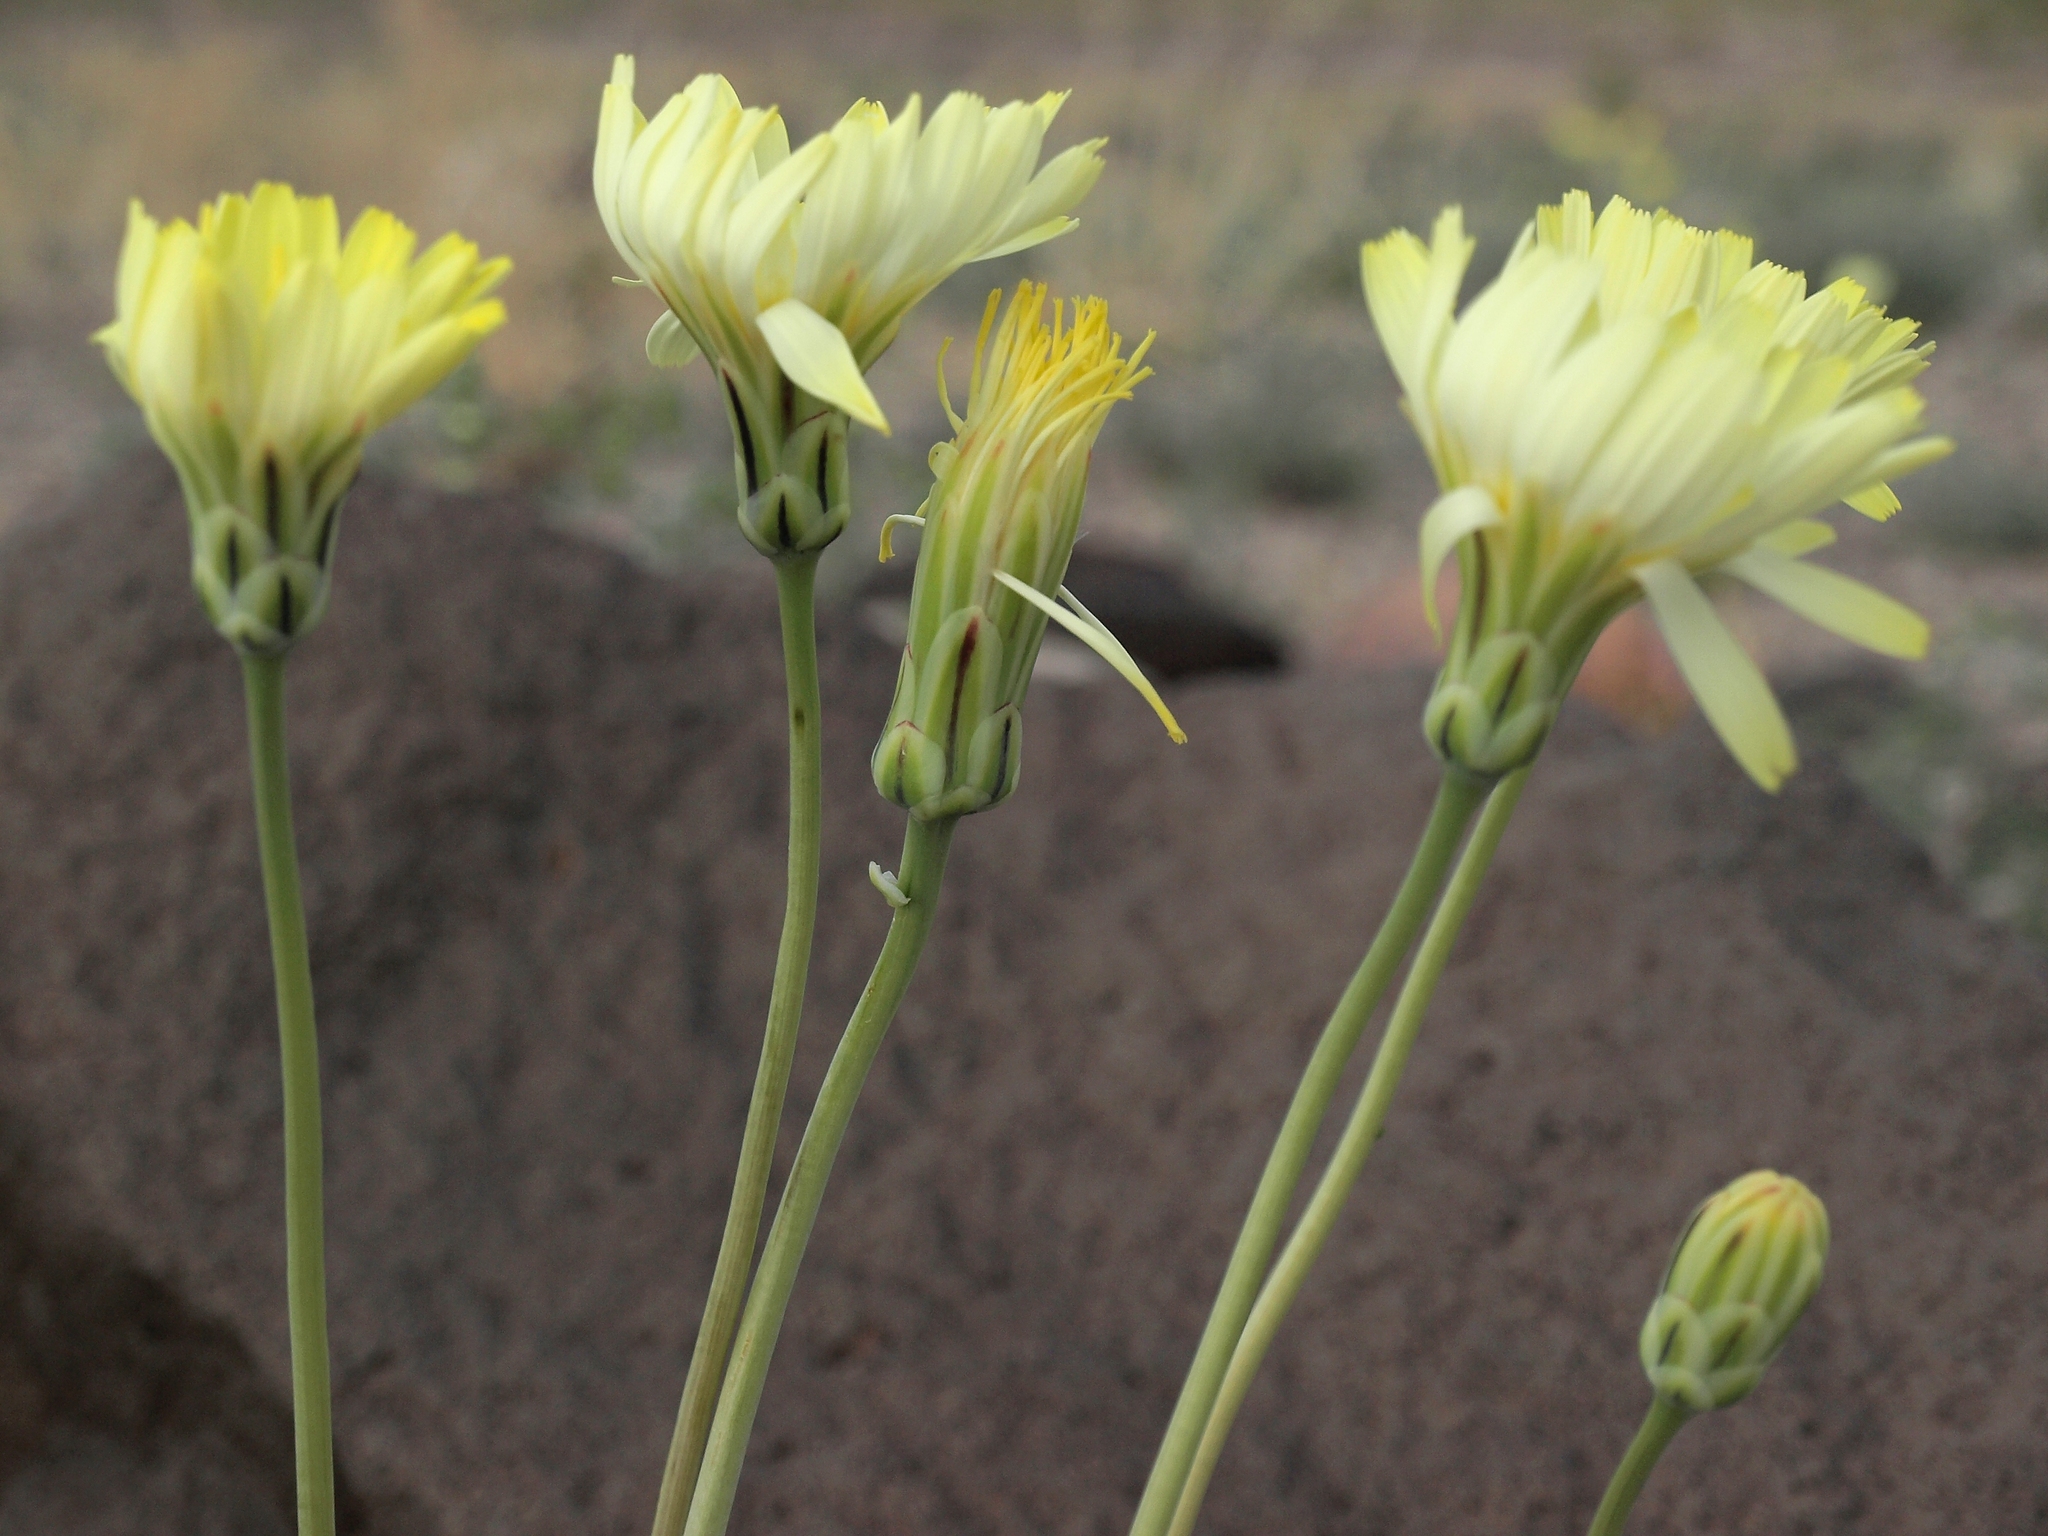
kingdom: Plantae
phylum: Tracheophyta
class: Magnoliopsida
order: Asterales
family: Asteraceae
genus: Anisocoma
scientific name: Anisocoma acaulis
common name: Scalebud
